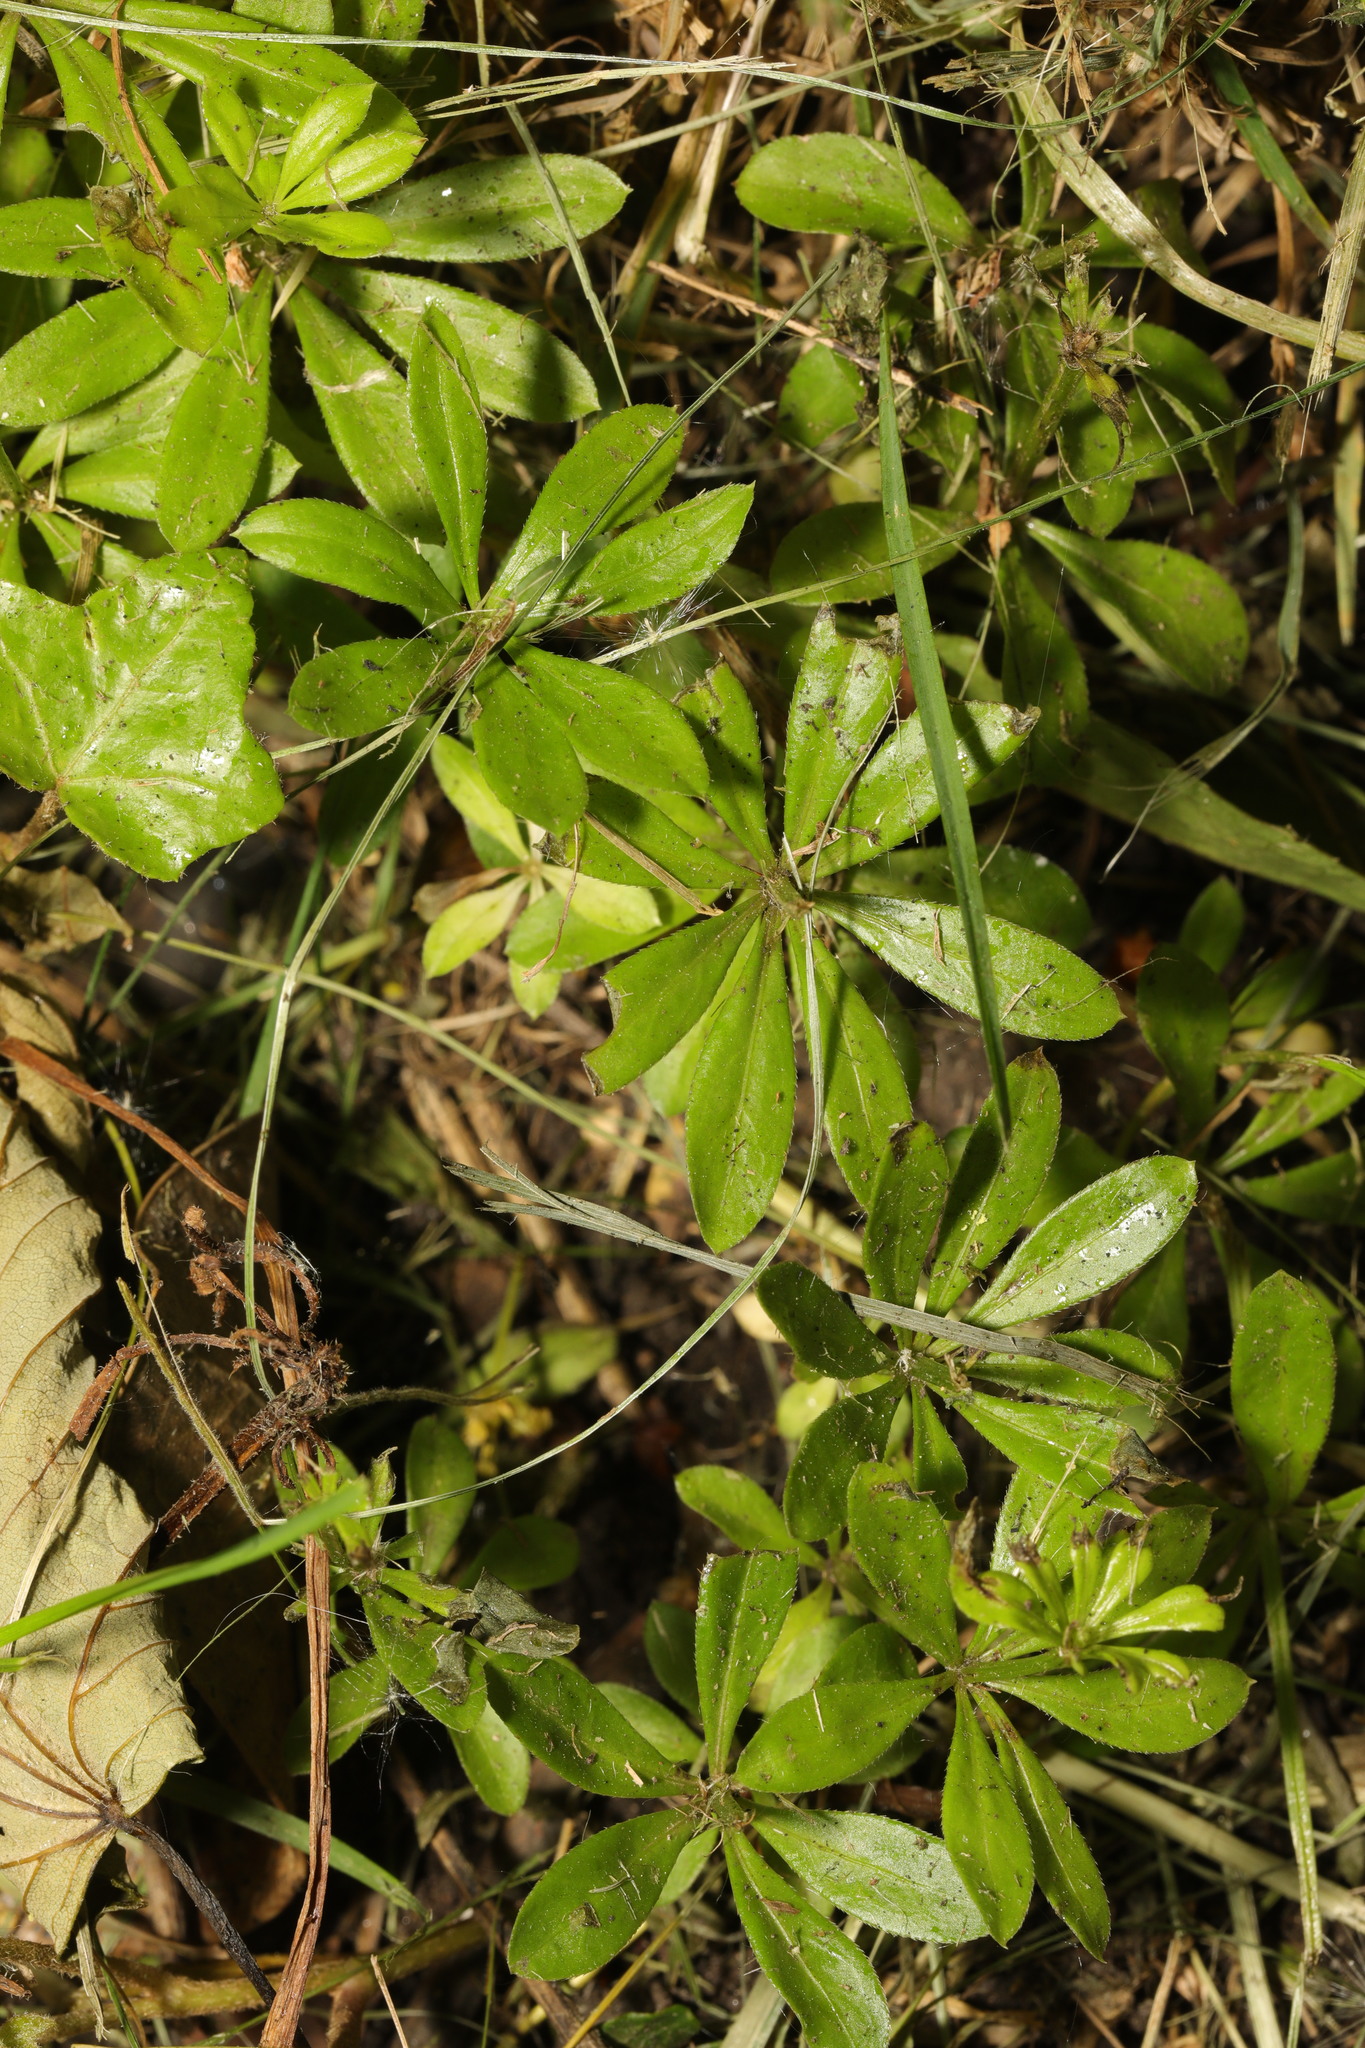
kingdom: Plantae
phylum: Tracheophyta
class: Magnoliopsida
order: Gentianales
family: Rubiaceae
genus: Galium
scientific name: Galium odoratum
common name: Sweet woodruff
